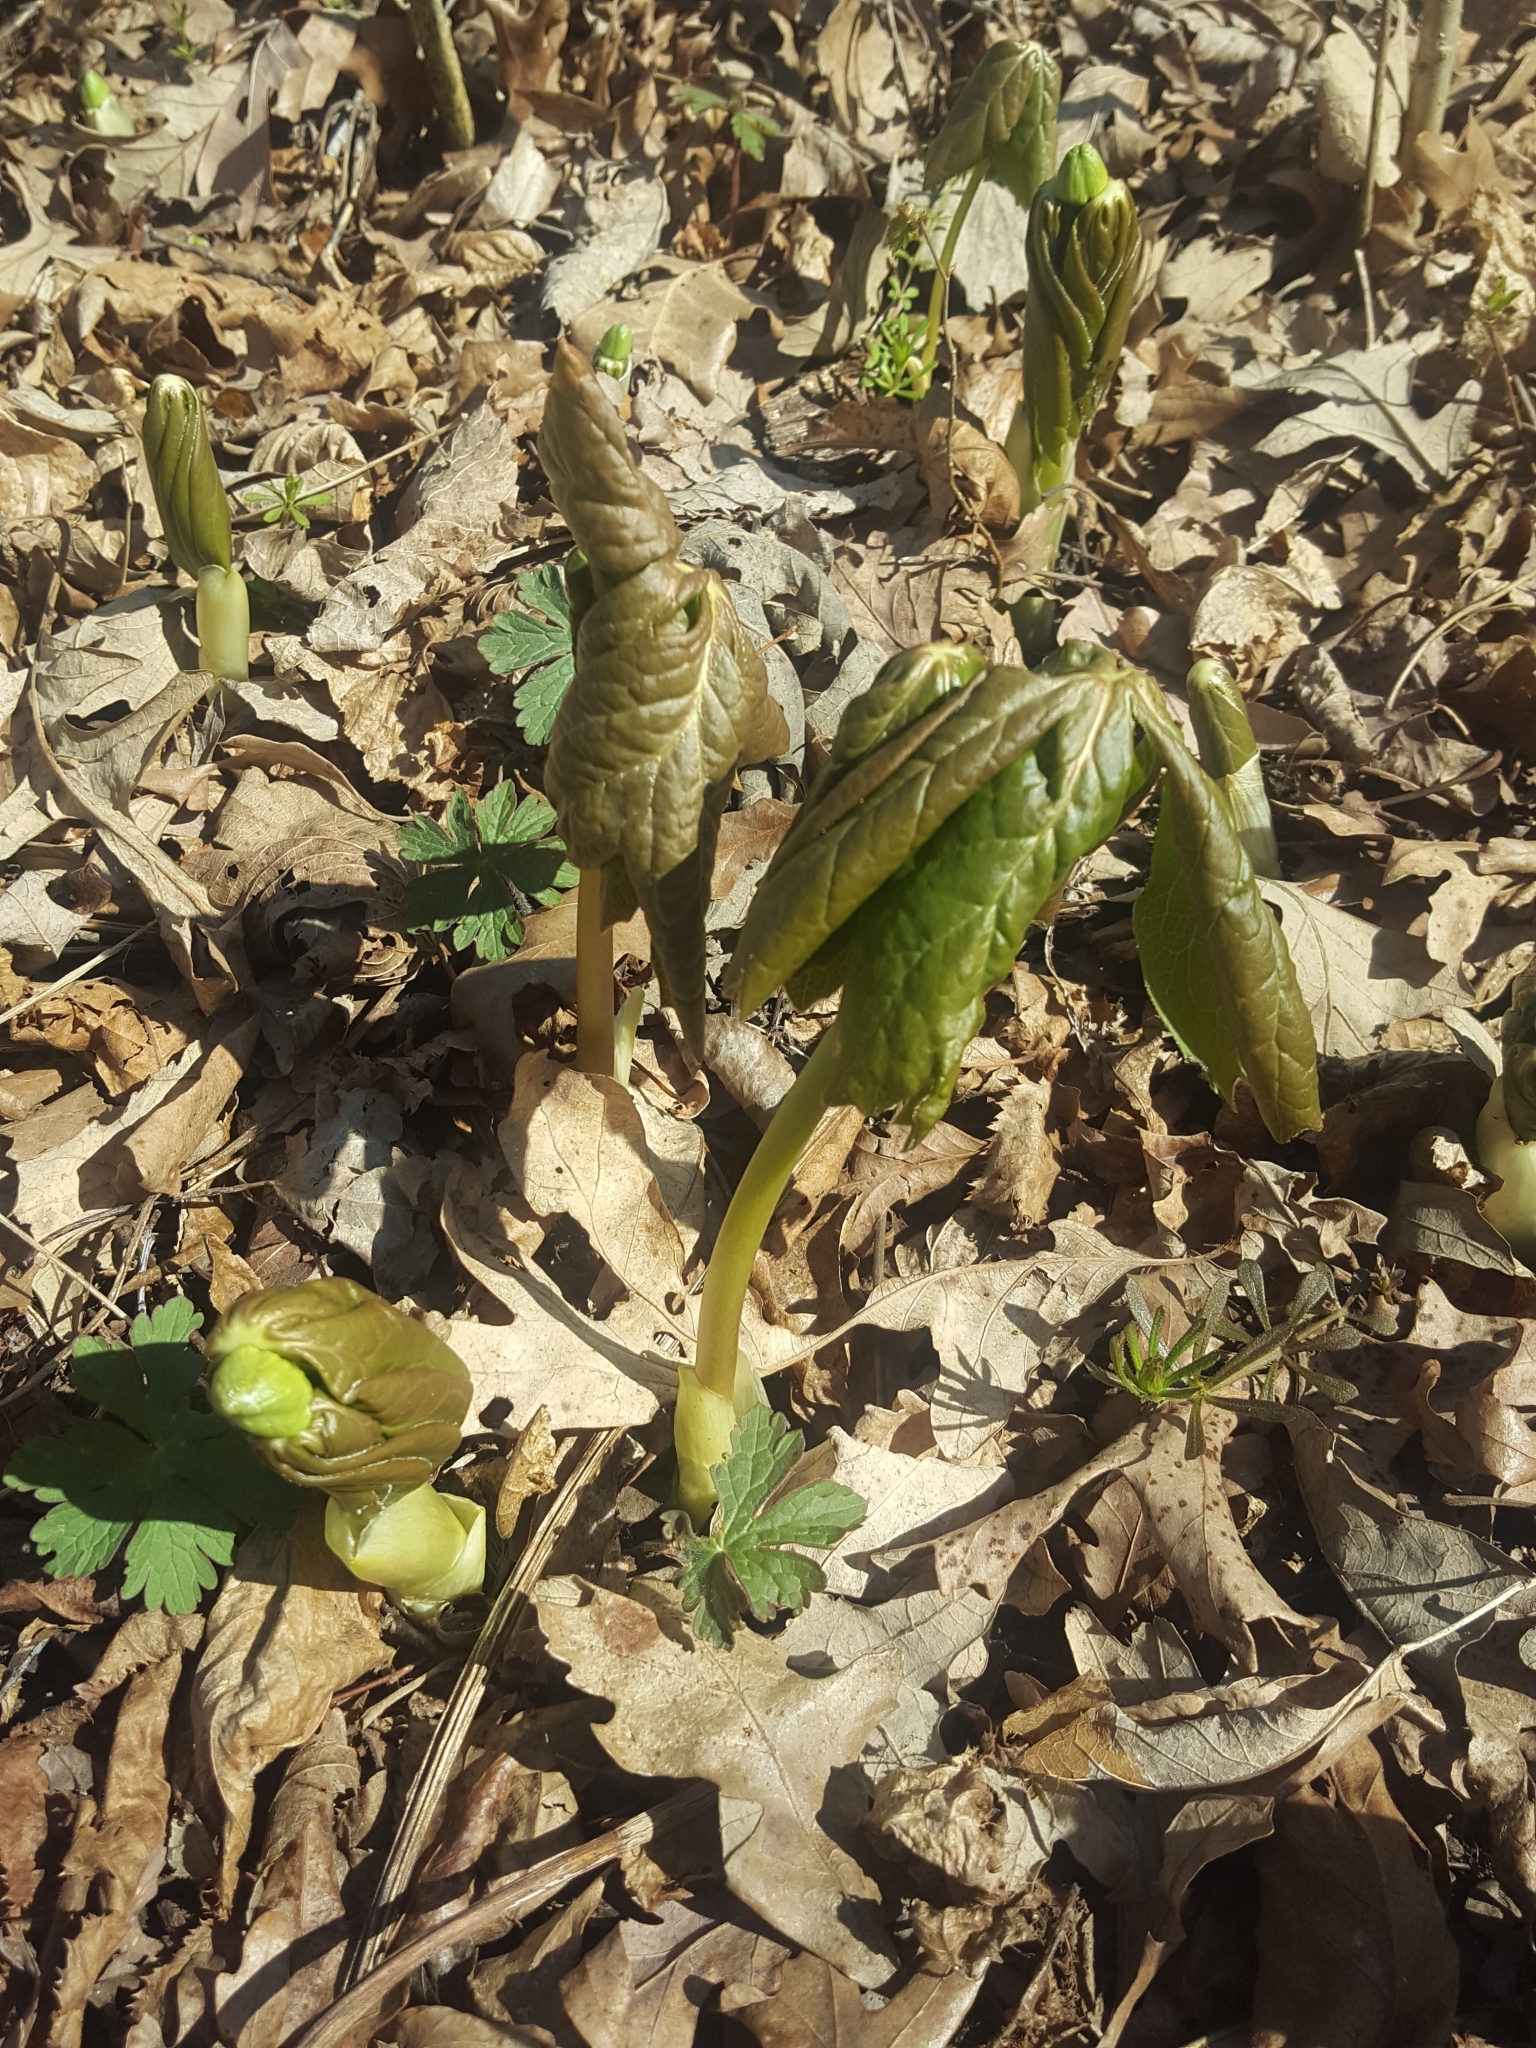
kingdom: Plantae
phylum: Tracheophyta
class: Magnoliopsida
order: Ranunculales
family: Berberidaceae
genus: Podophyllum
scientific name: Podophyllum peltatum
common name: Wild mandrake
